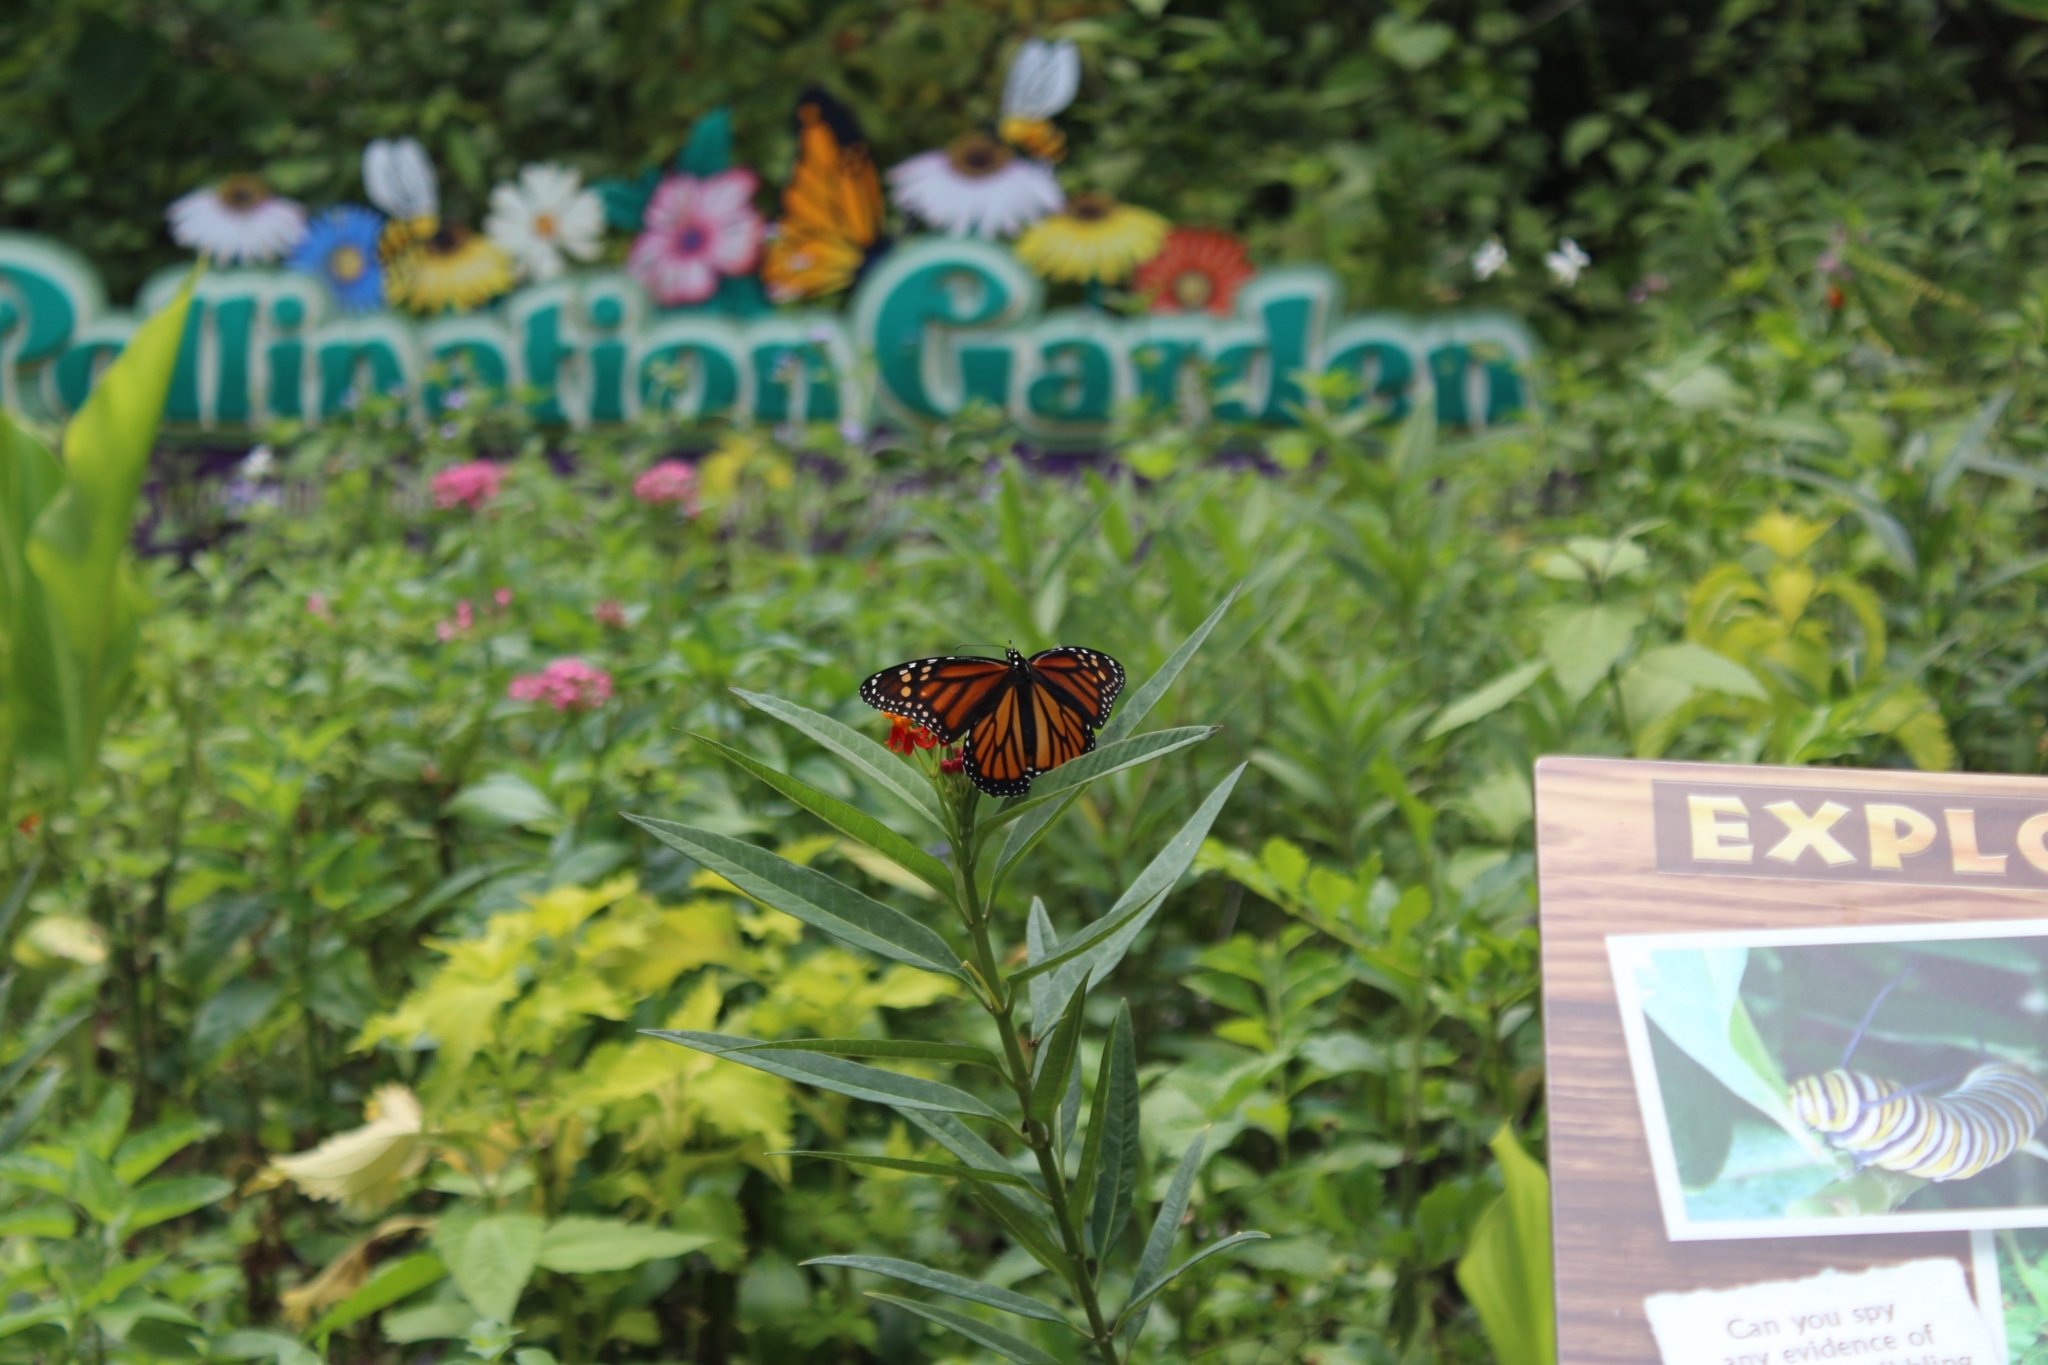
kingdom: Animalia
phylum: Arthropoda
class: Insecta
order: Lepidoptera
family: Nymphalidae
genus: Danaus
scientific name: Danaus plexippus
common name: Monarch
